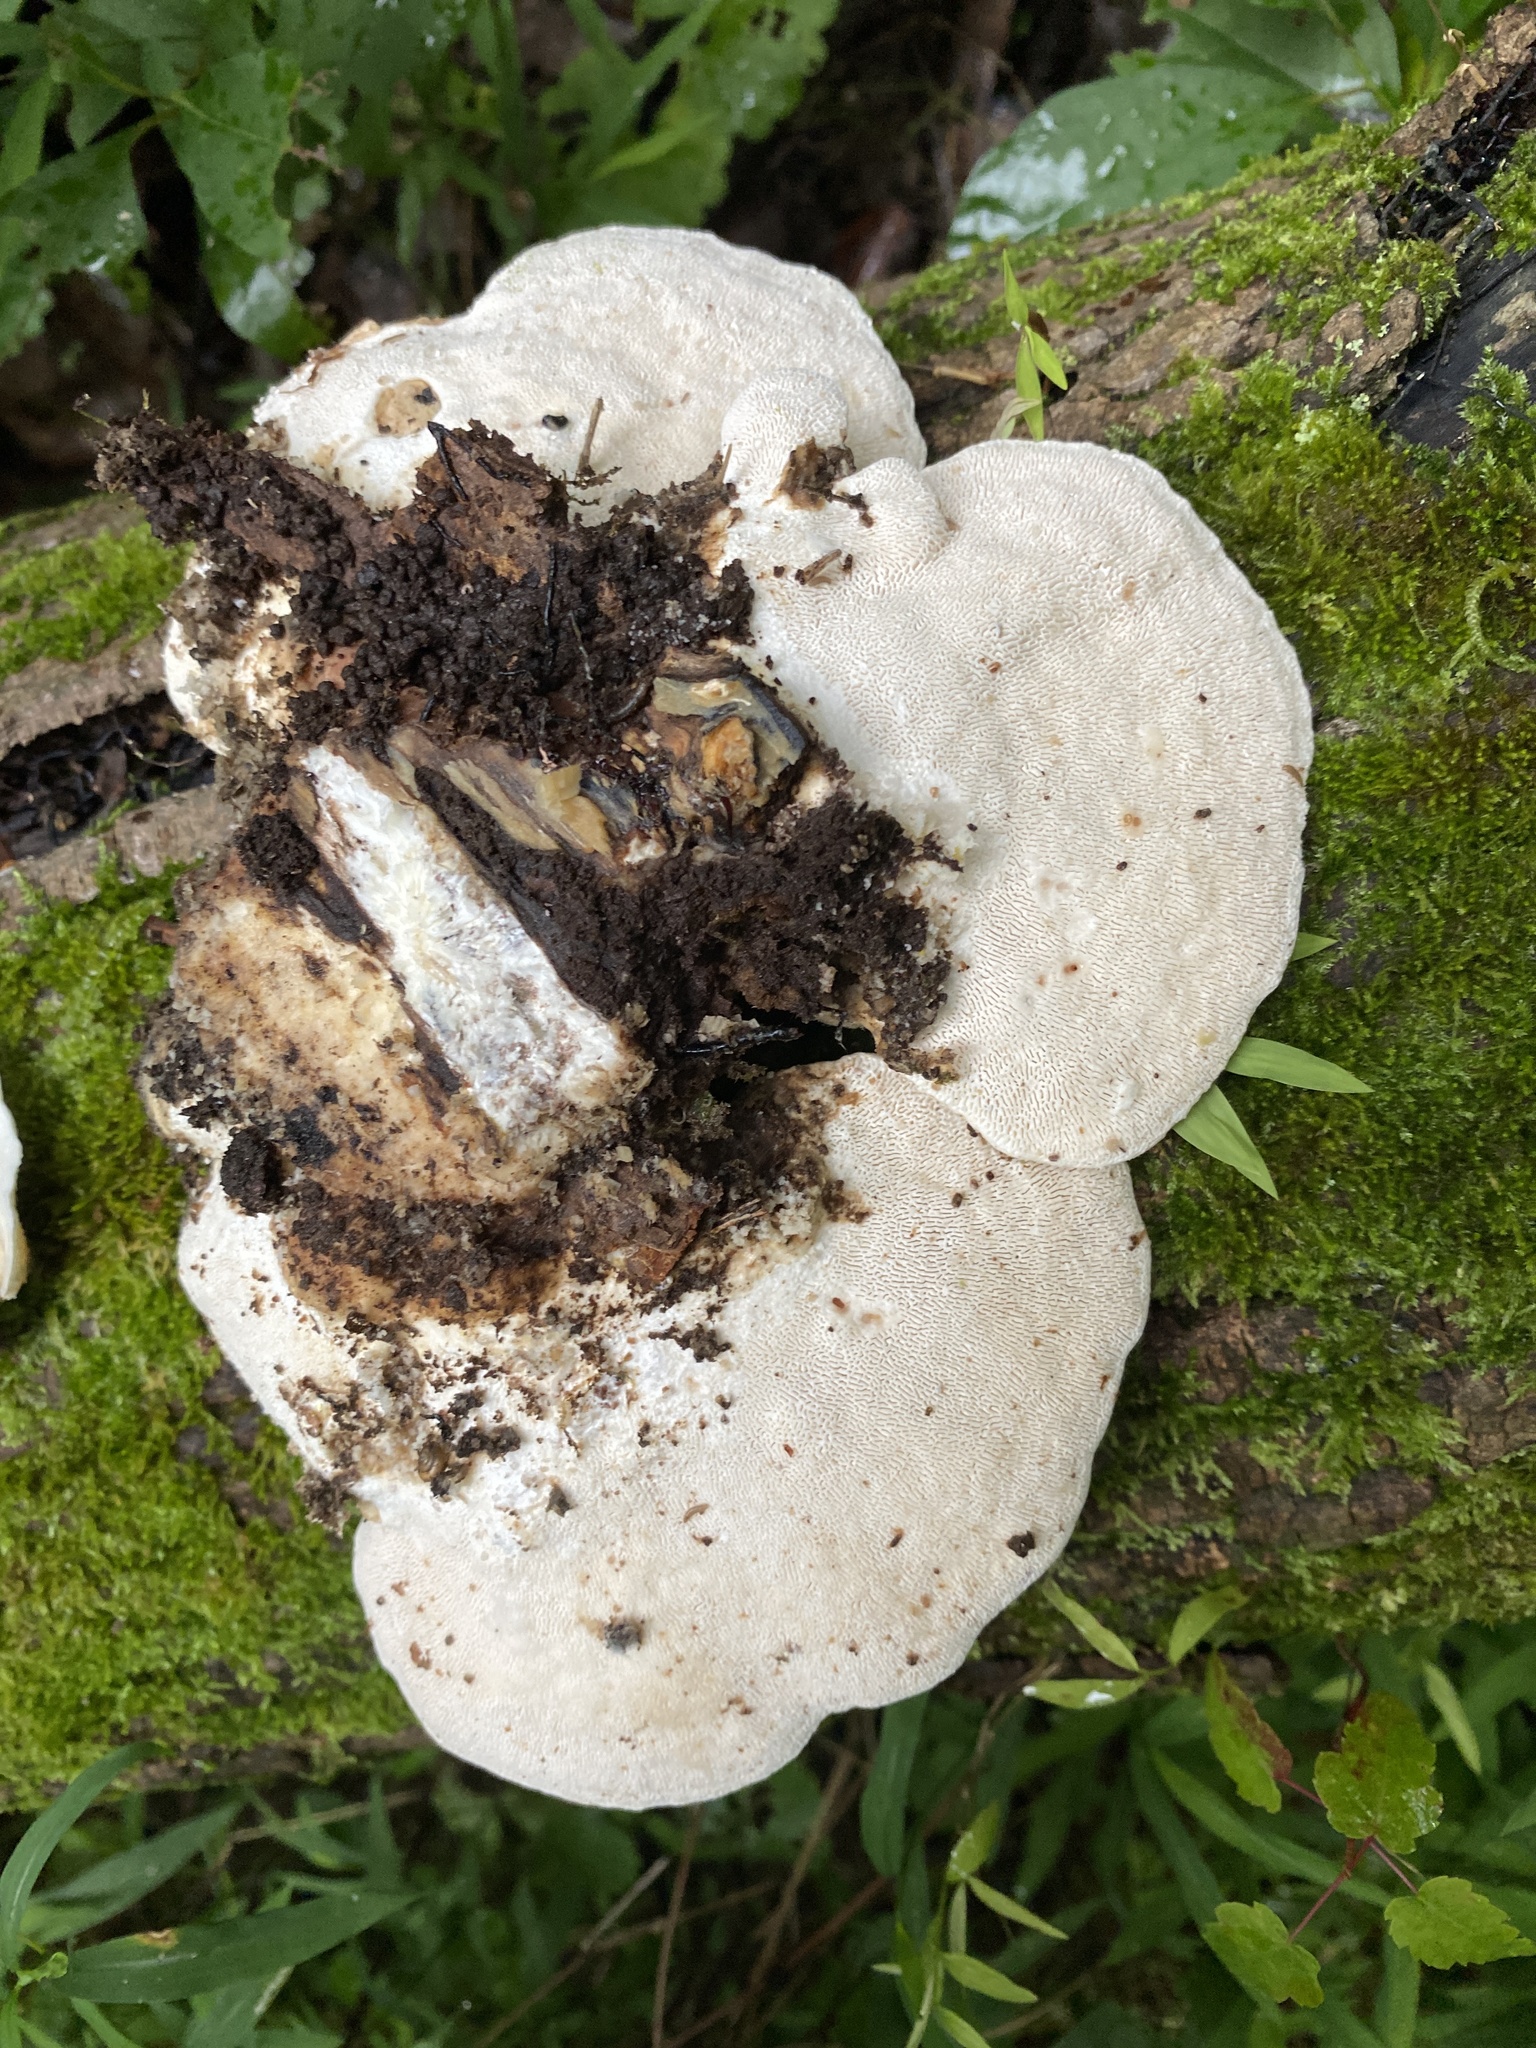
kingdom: Fungi
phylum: Basidiomycota
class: Agaricomycetes
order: Polyporales
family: Polyporaceae
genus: Trametes
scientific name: Trametes gibbosa
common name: Lumpy bracket
